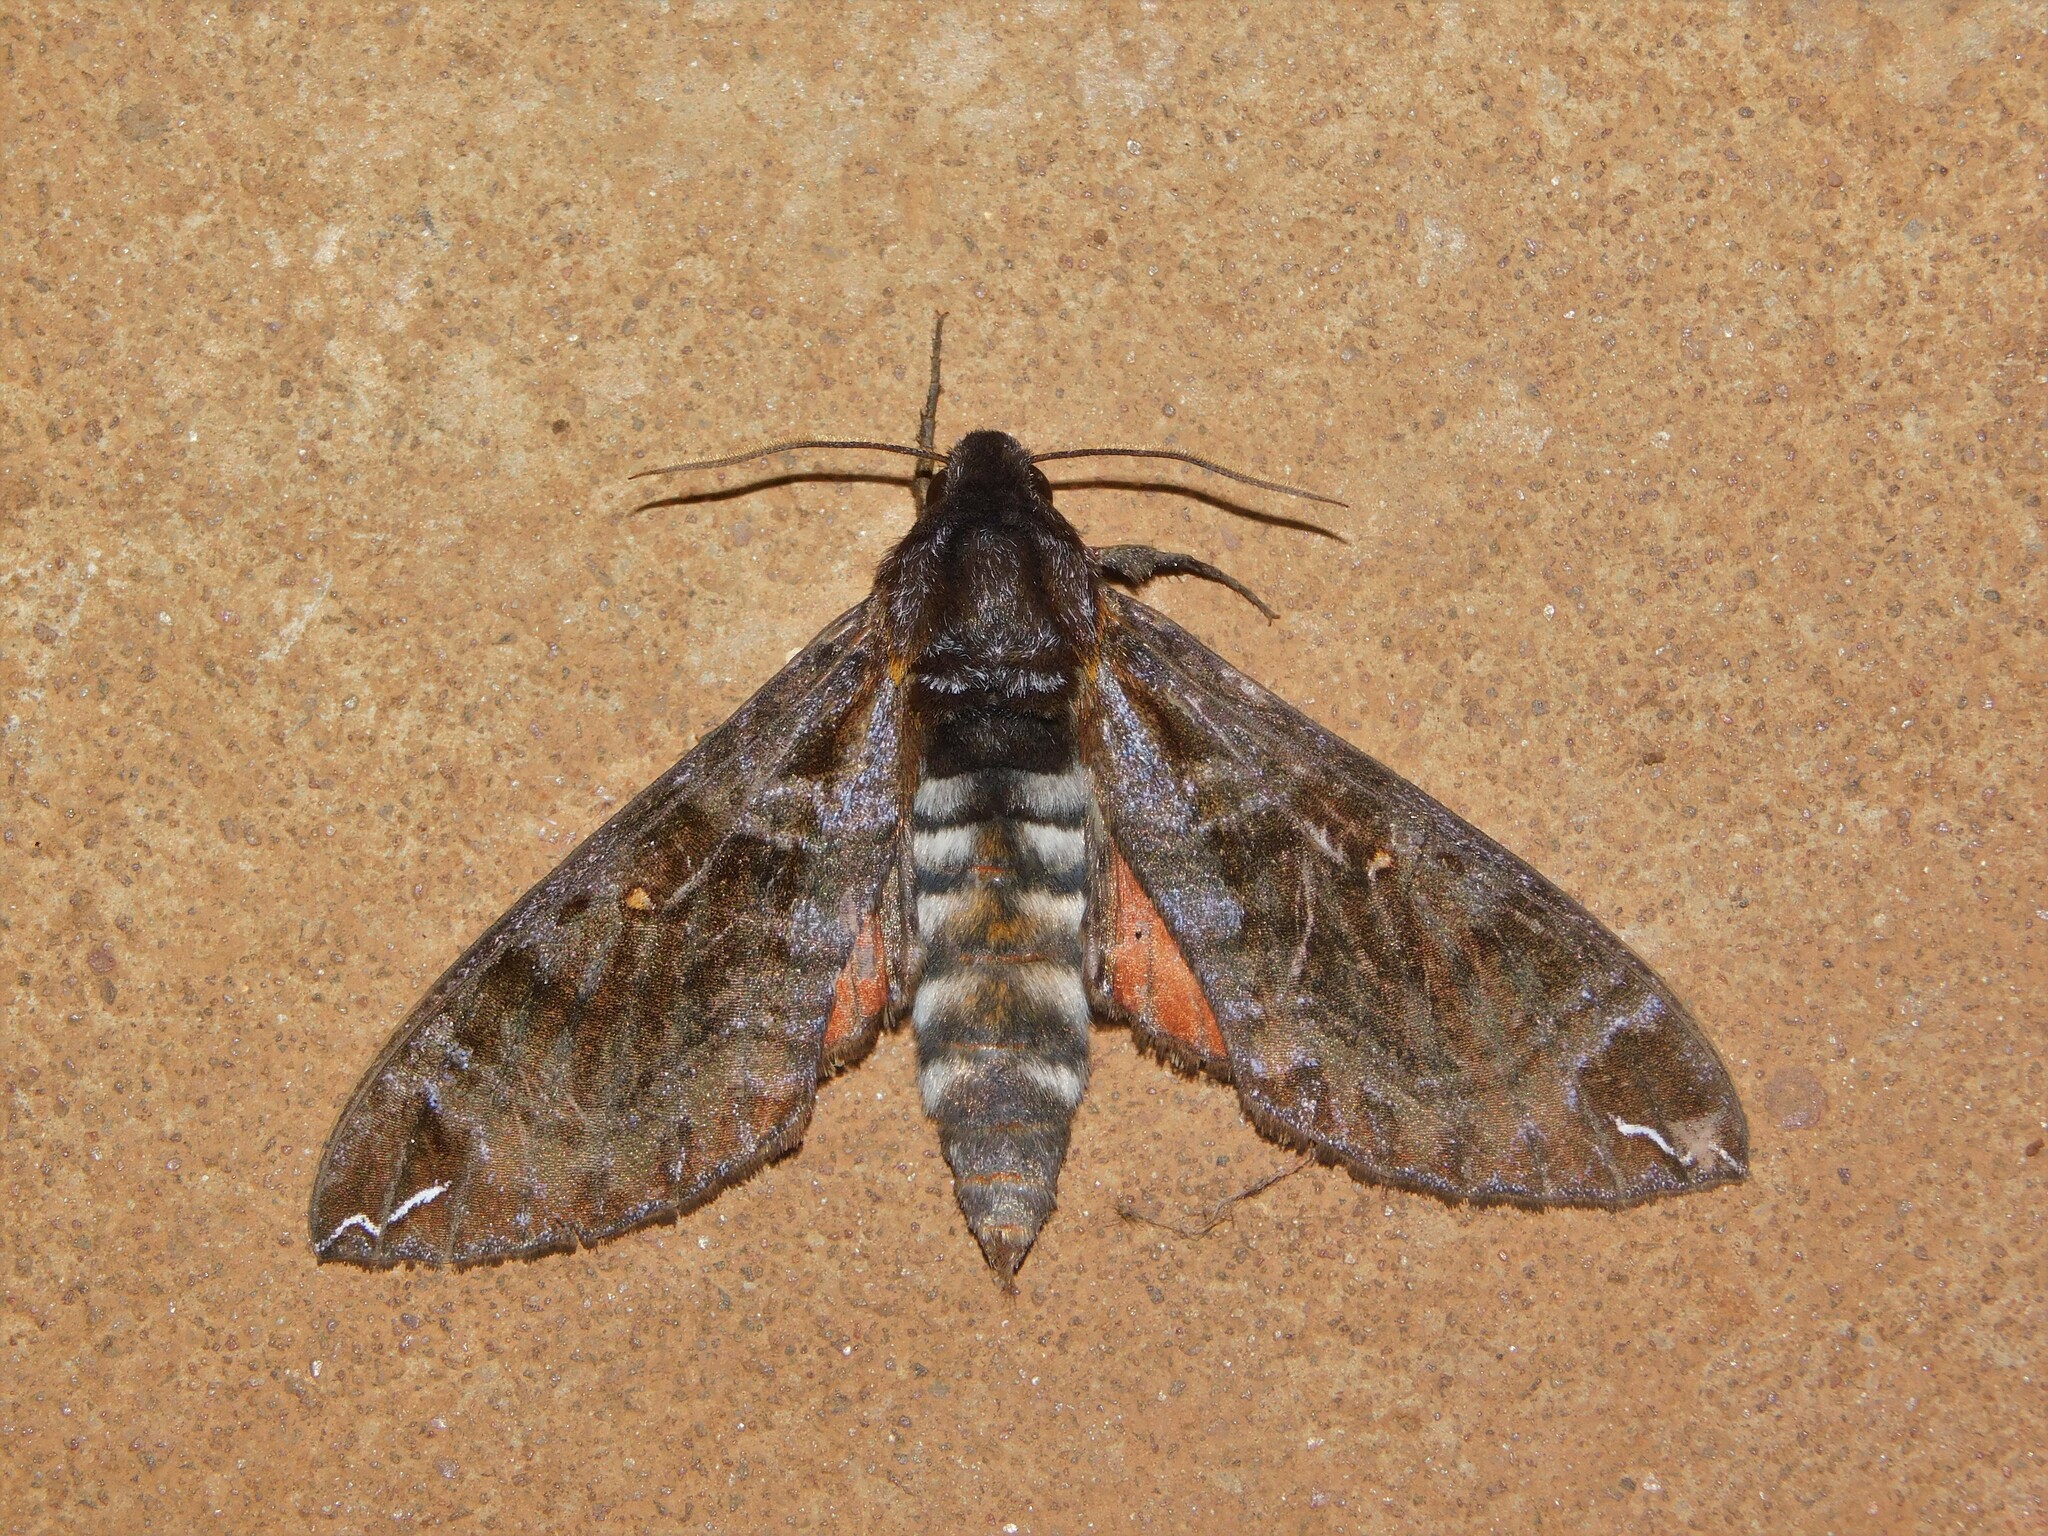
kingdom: Animalia
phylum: Arthropoda
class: Insecta
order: Lepidoptera
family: Sphingidae
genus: Dovania
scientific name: Dovania poecila
